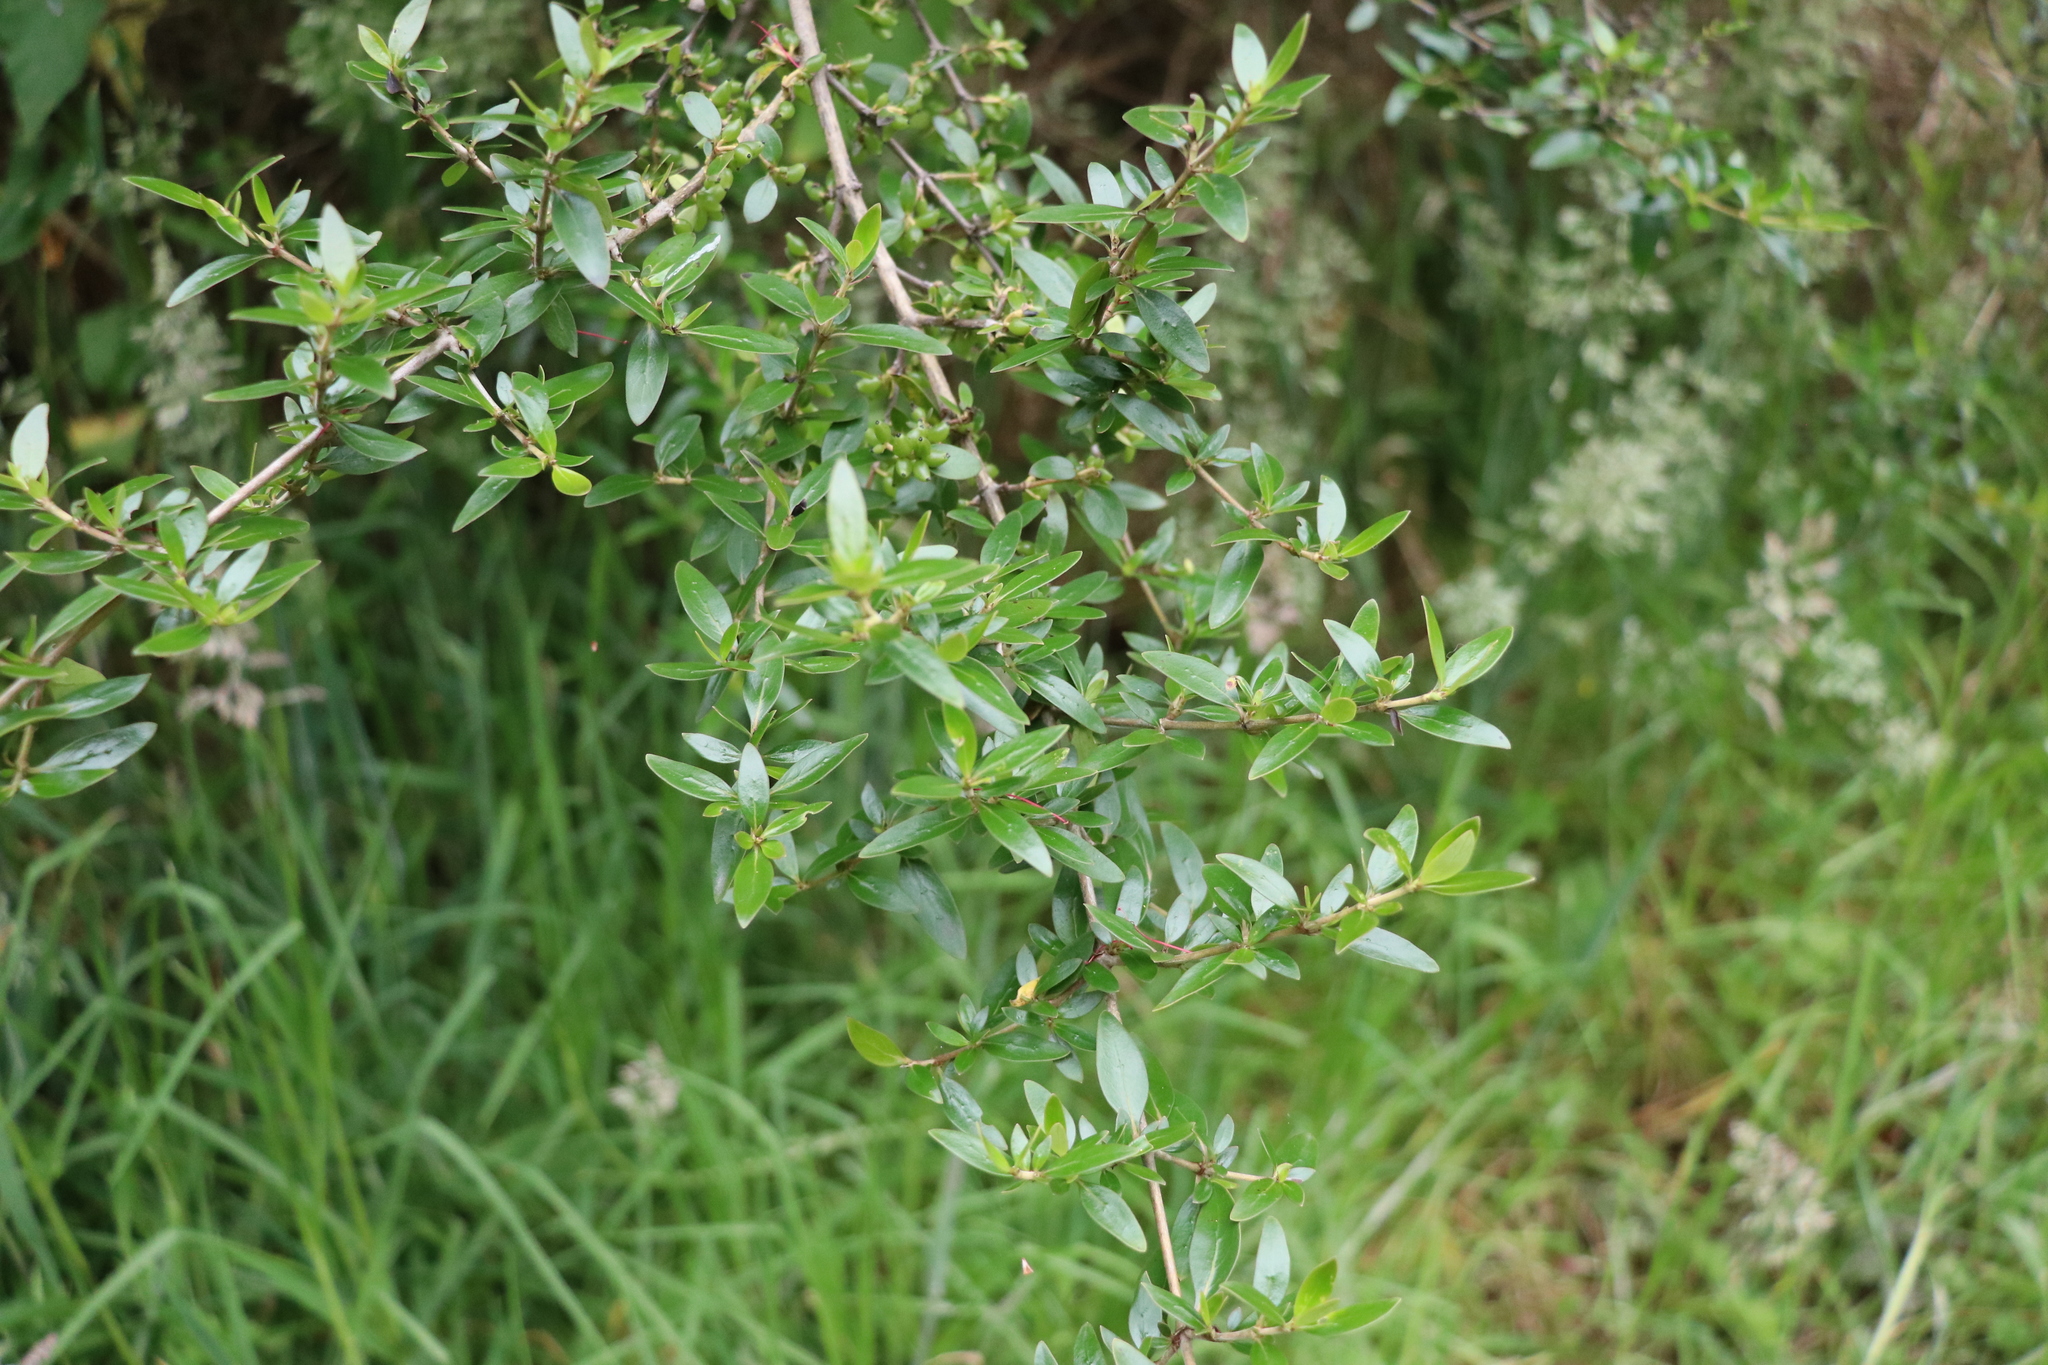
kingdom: Plantae
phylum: Tracheophyta
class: Magnoliopsida
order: Gentianales
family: Rubiaceae
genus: Coprosma
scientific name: Coprosma cunninghamii
